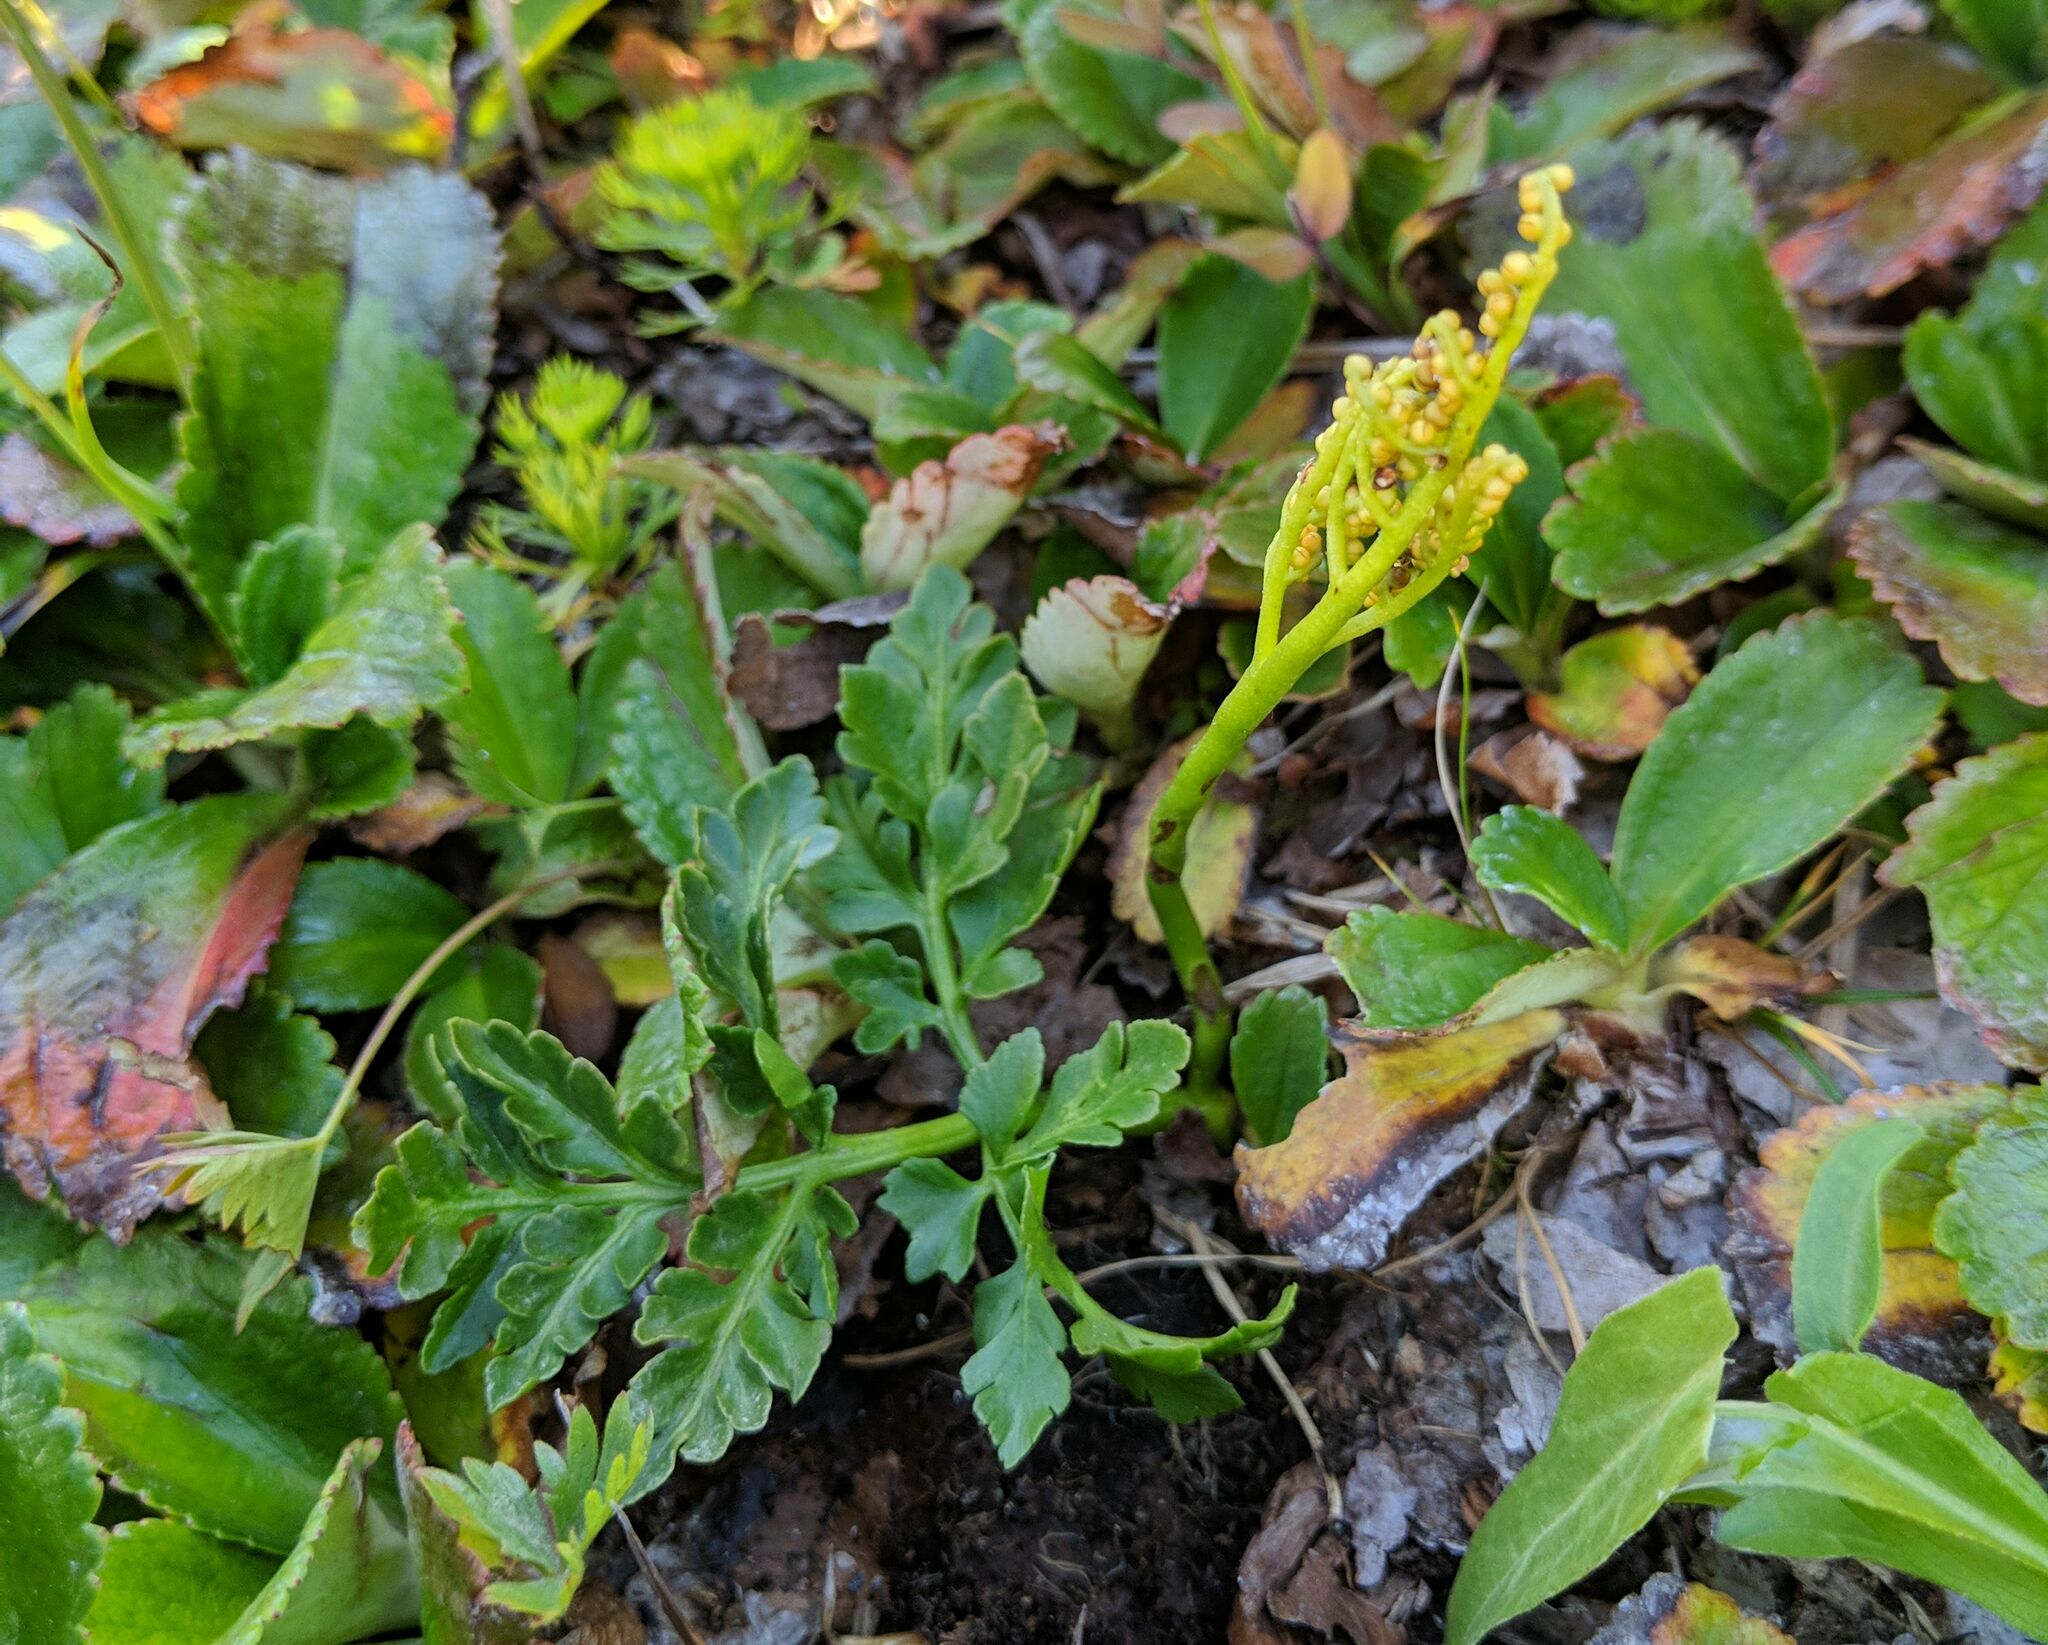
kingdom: Plantae
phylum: Tracheophyta
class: Polypodiopsida
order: Ophioglossales
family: Ophioglossaceae
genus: Sceptridium
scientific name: Sceptridium multifidum
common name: Leathery grape fern
